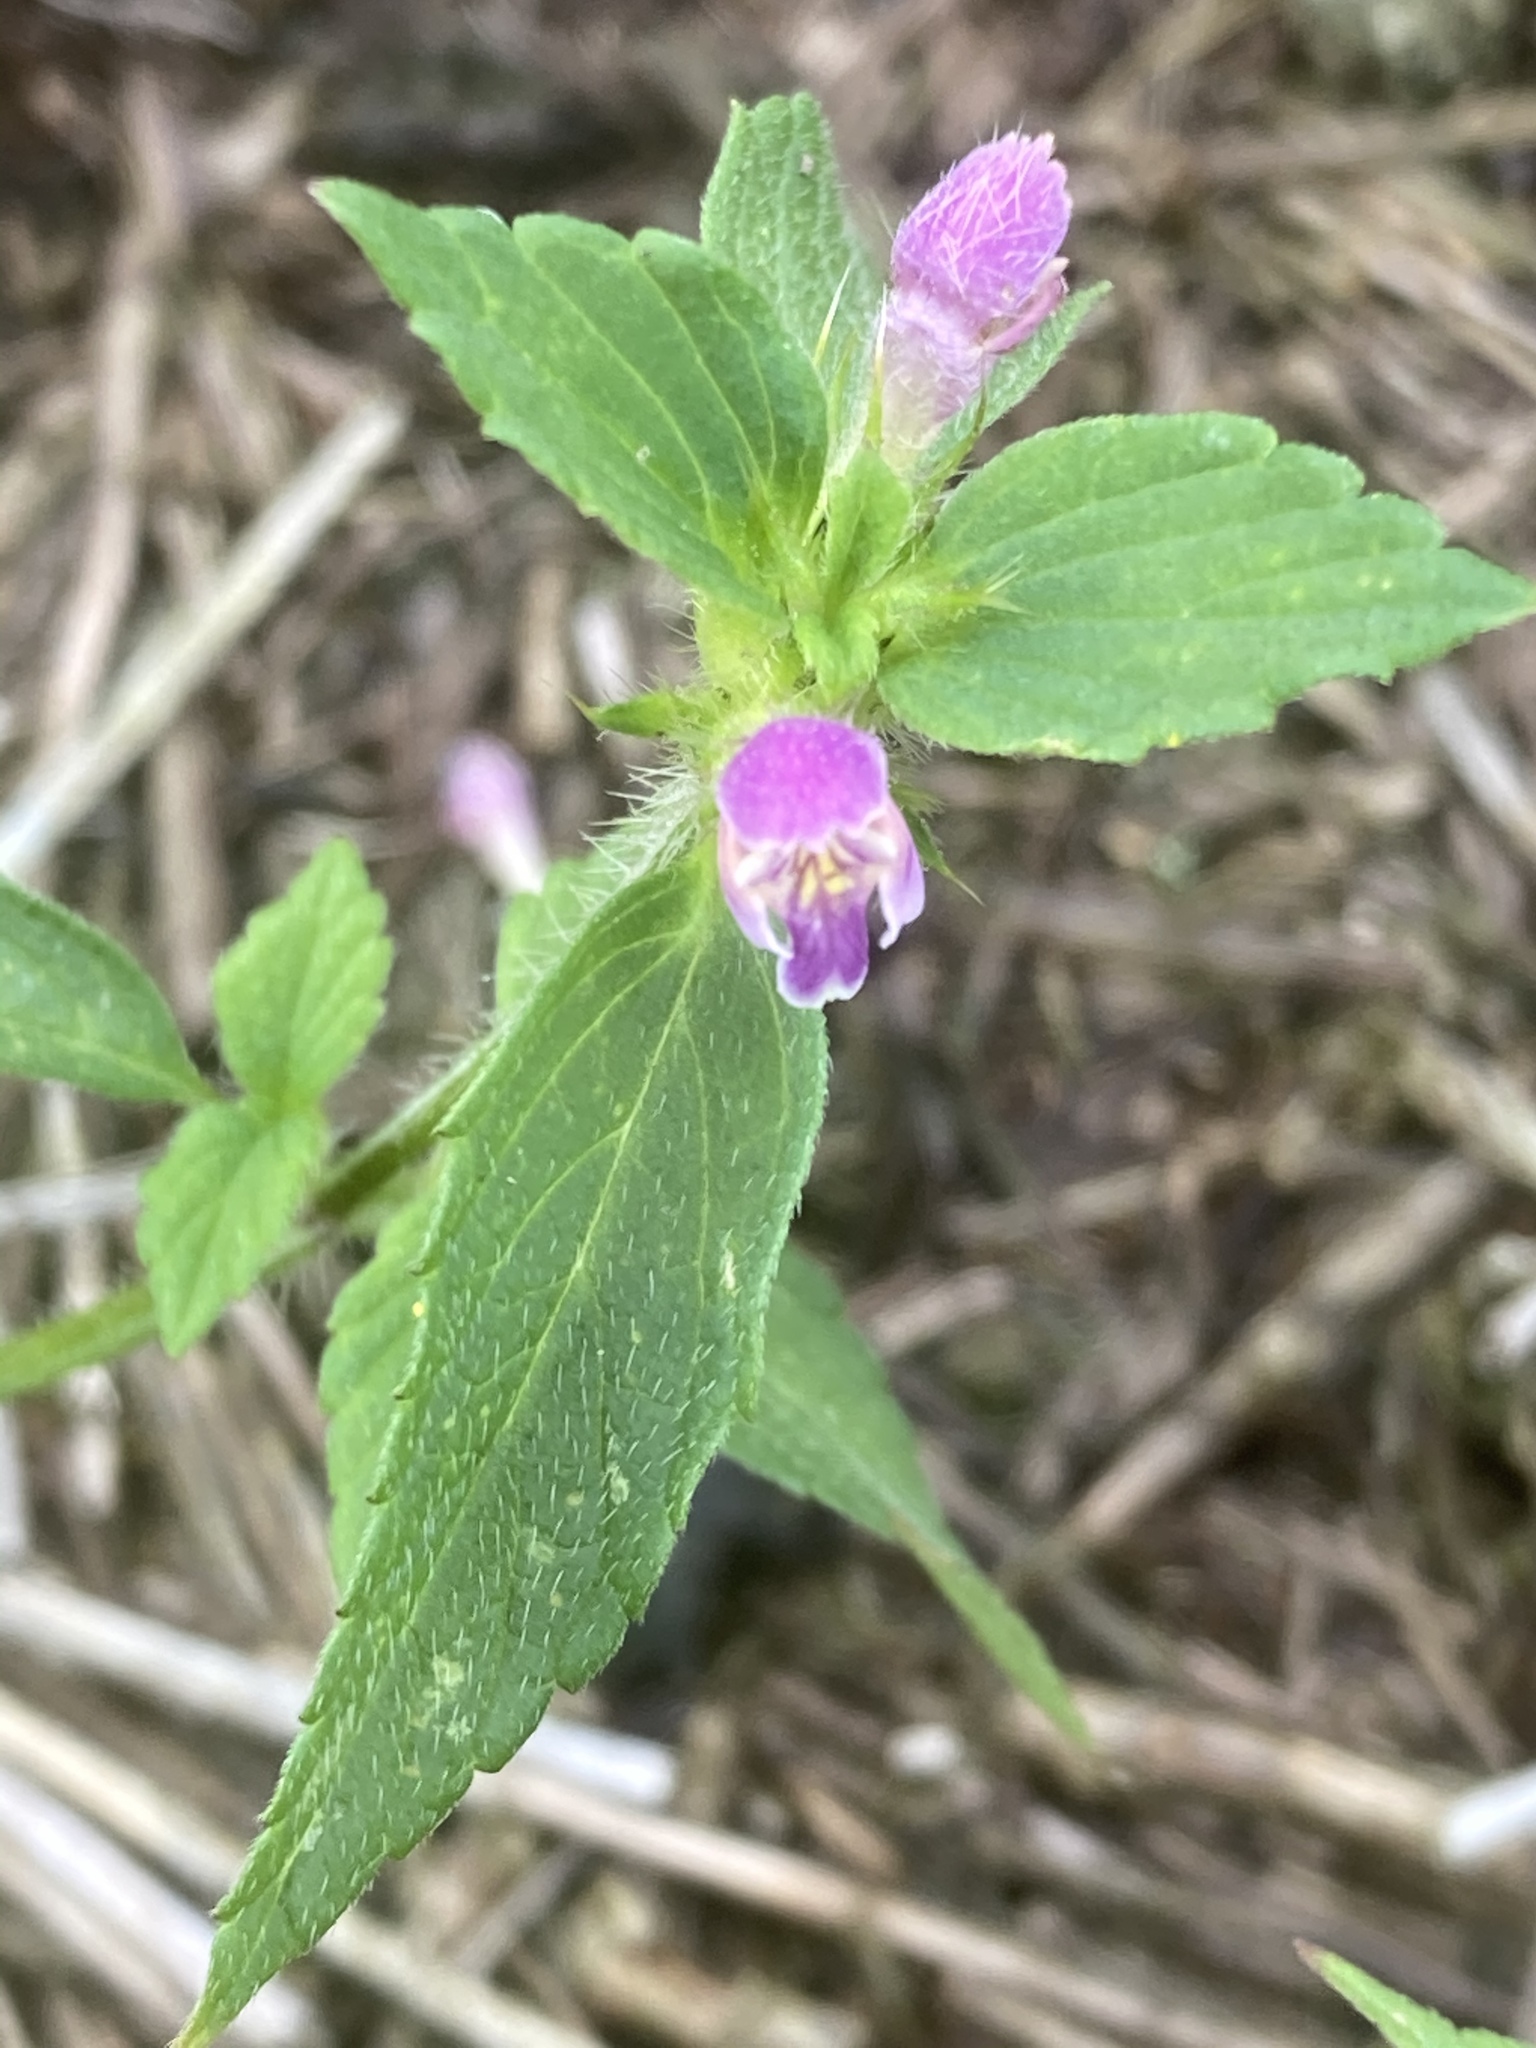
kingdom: Plantae
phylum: Tracheophyta
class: Magnoliopsida
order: Lamiales
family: Lamiaceae
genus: Galeopsis
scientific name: Galeopsis bifida
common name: Bifid hemp-nettle
